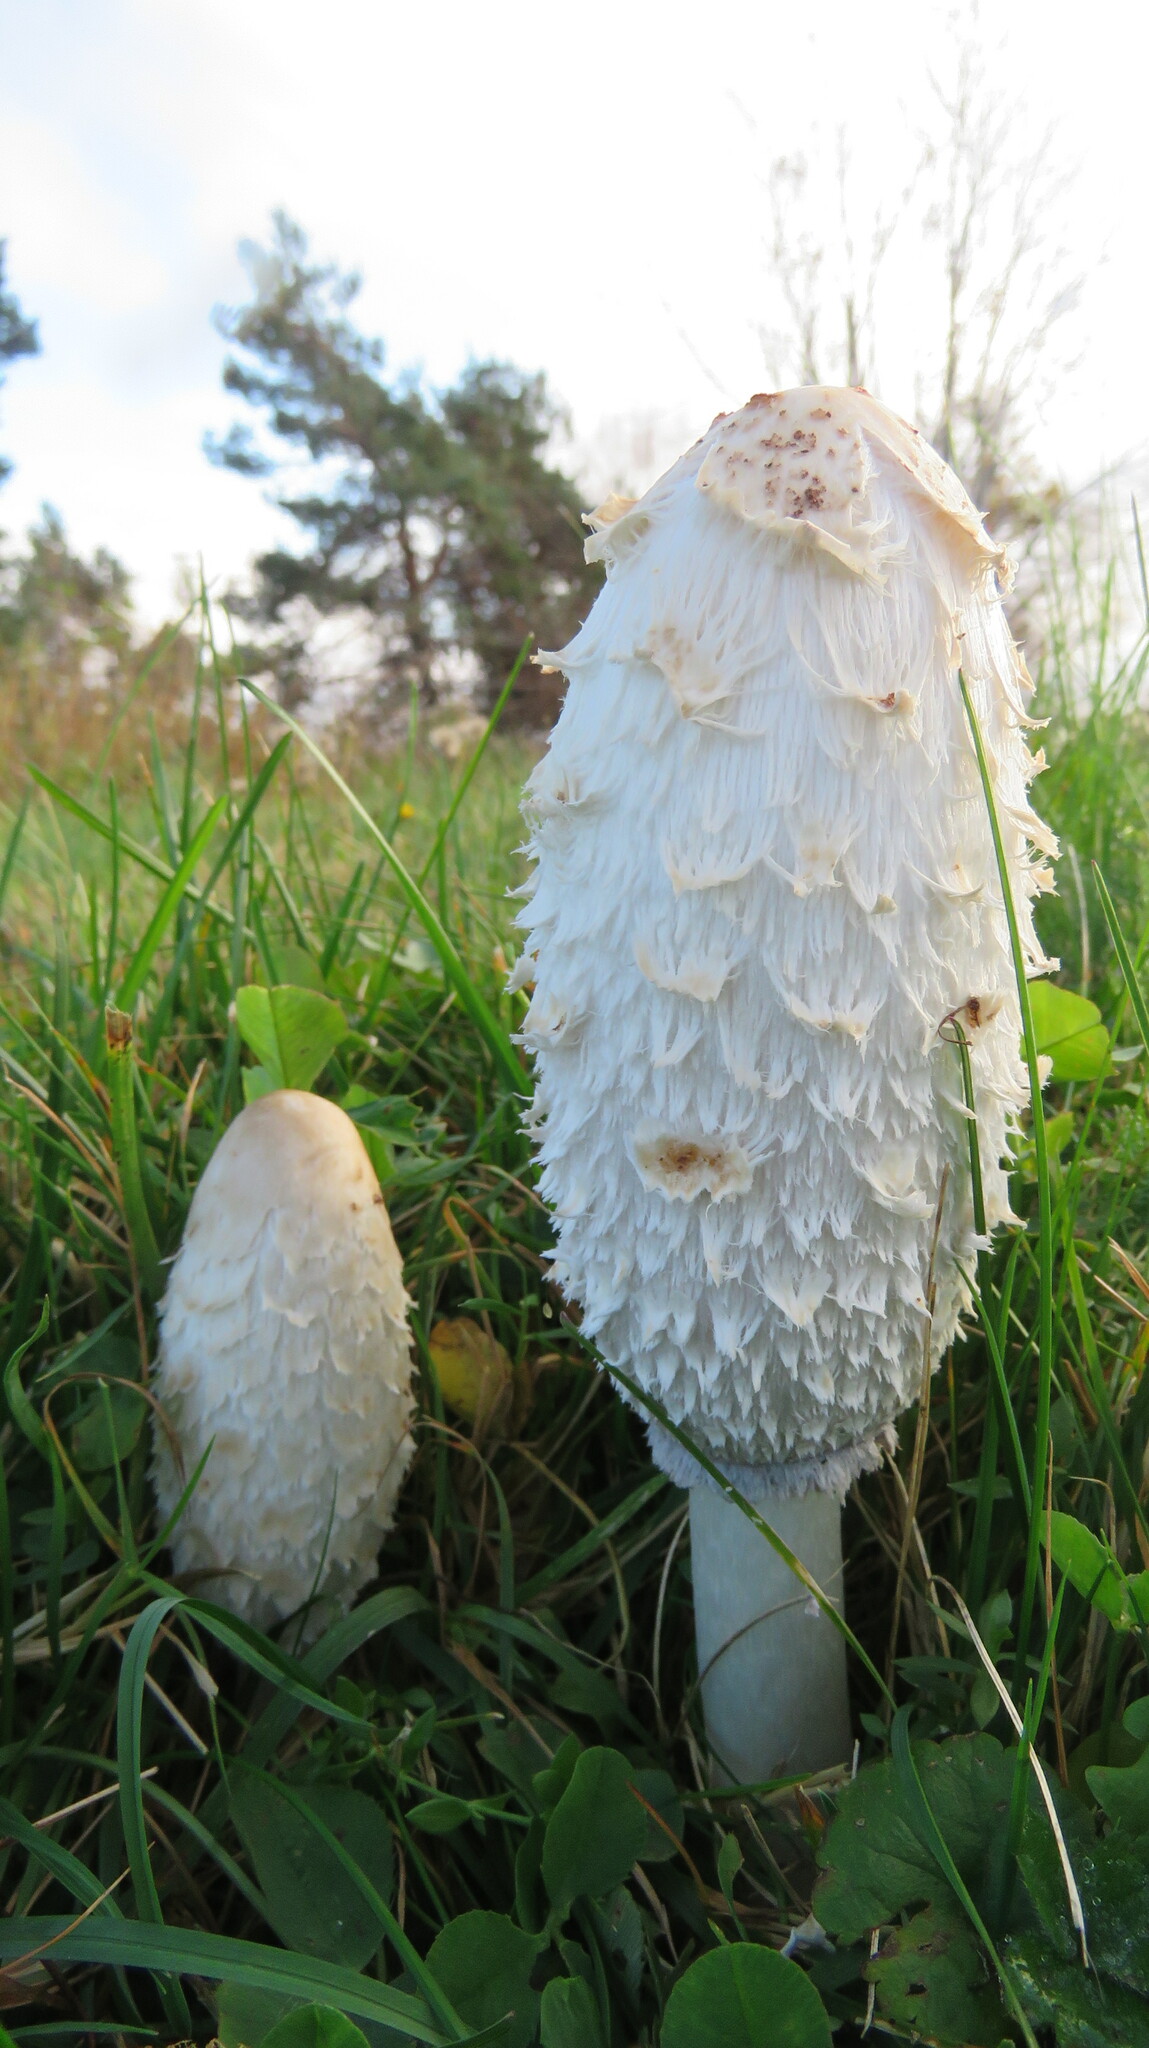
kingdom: Fungi
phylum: Basidiomycota
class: Agaricomycetes
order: Agaricales
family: Agaricaceae
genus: Coprinus
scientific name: Coprinus comatus
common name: Lawyer's wig
